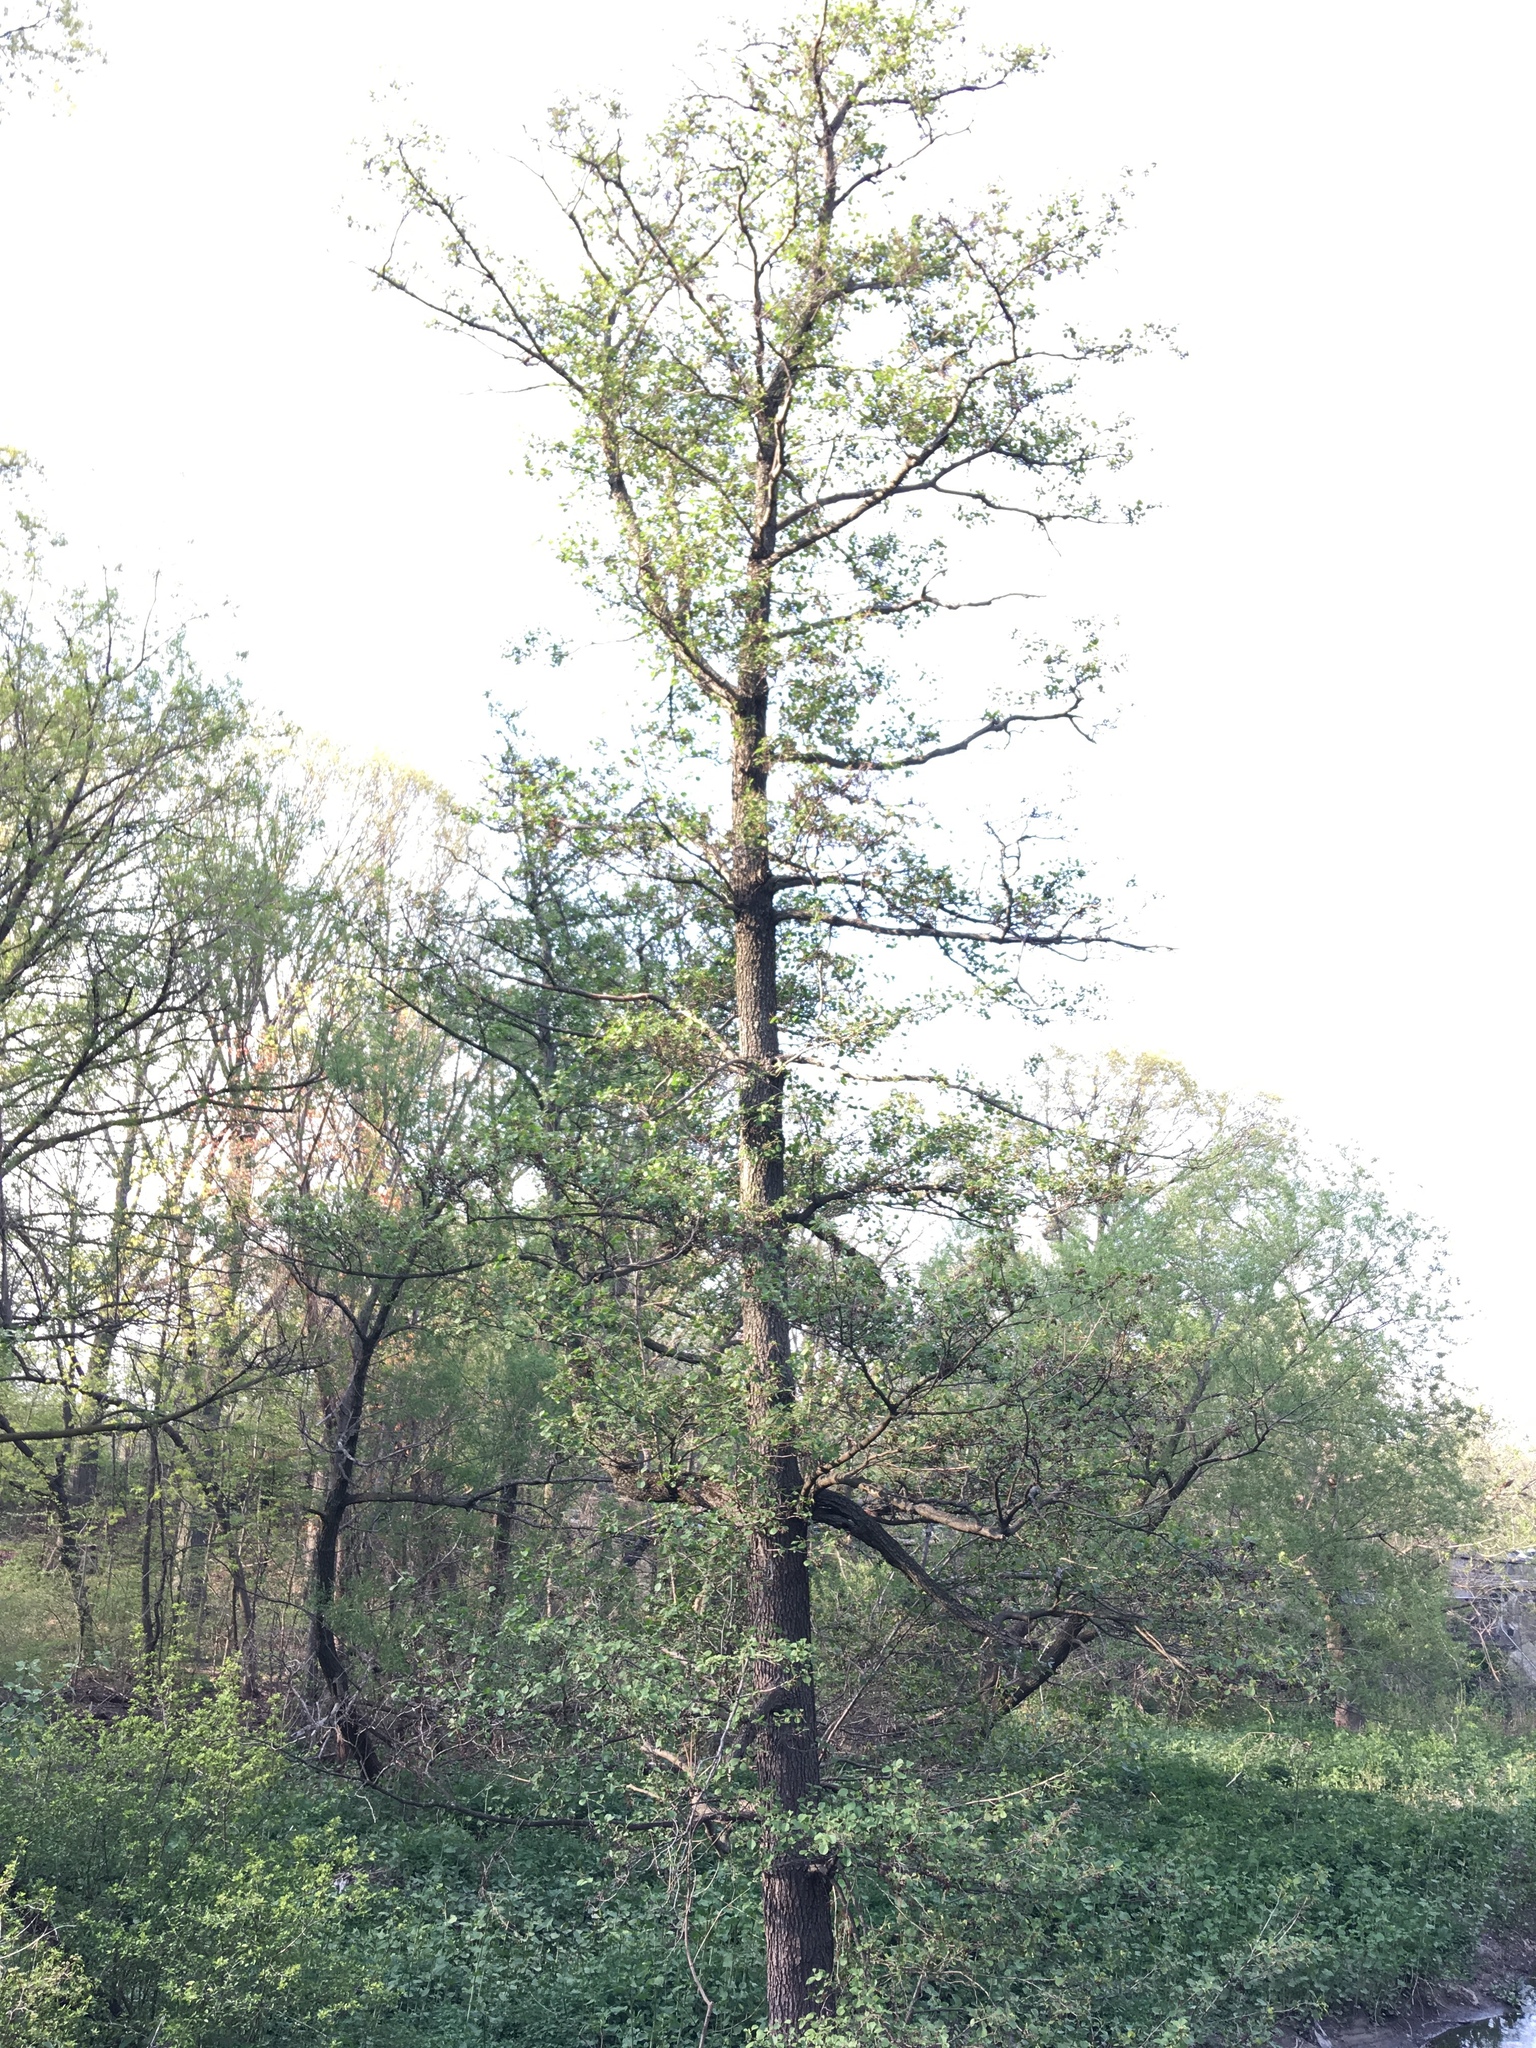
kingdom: Plantae
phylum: Tracheophyta
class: Magnoliopsida
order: Fagales
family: Betulaceae
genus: Alnus
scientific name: Alnus glutinosa
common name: Black alder
